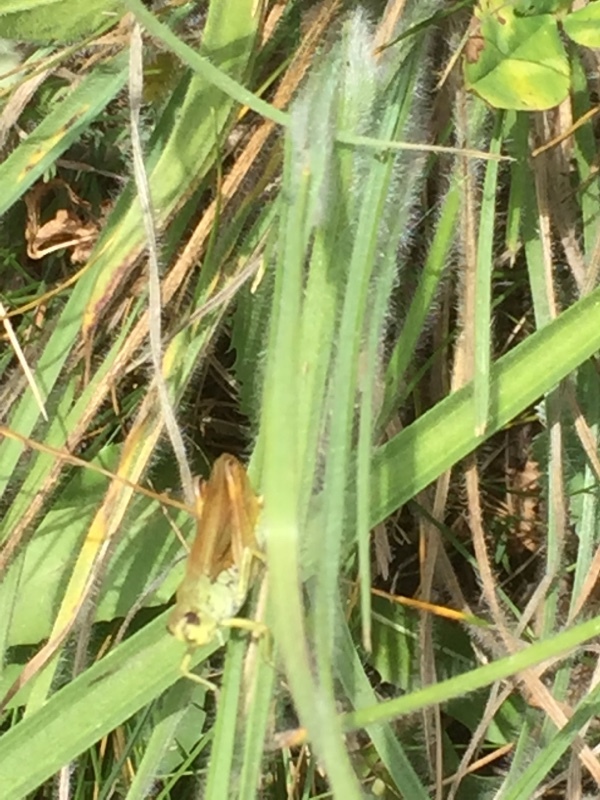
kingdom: Animalia
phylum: Arthropoda
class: Insecta
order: Orthoptera
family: Acrididae
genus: Stauroderus
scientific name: Stauroderus scalaris
